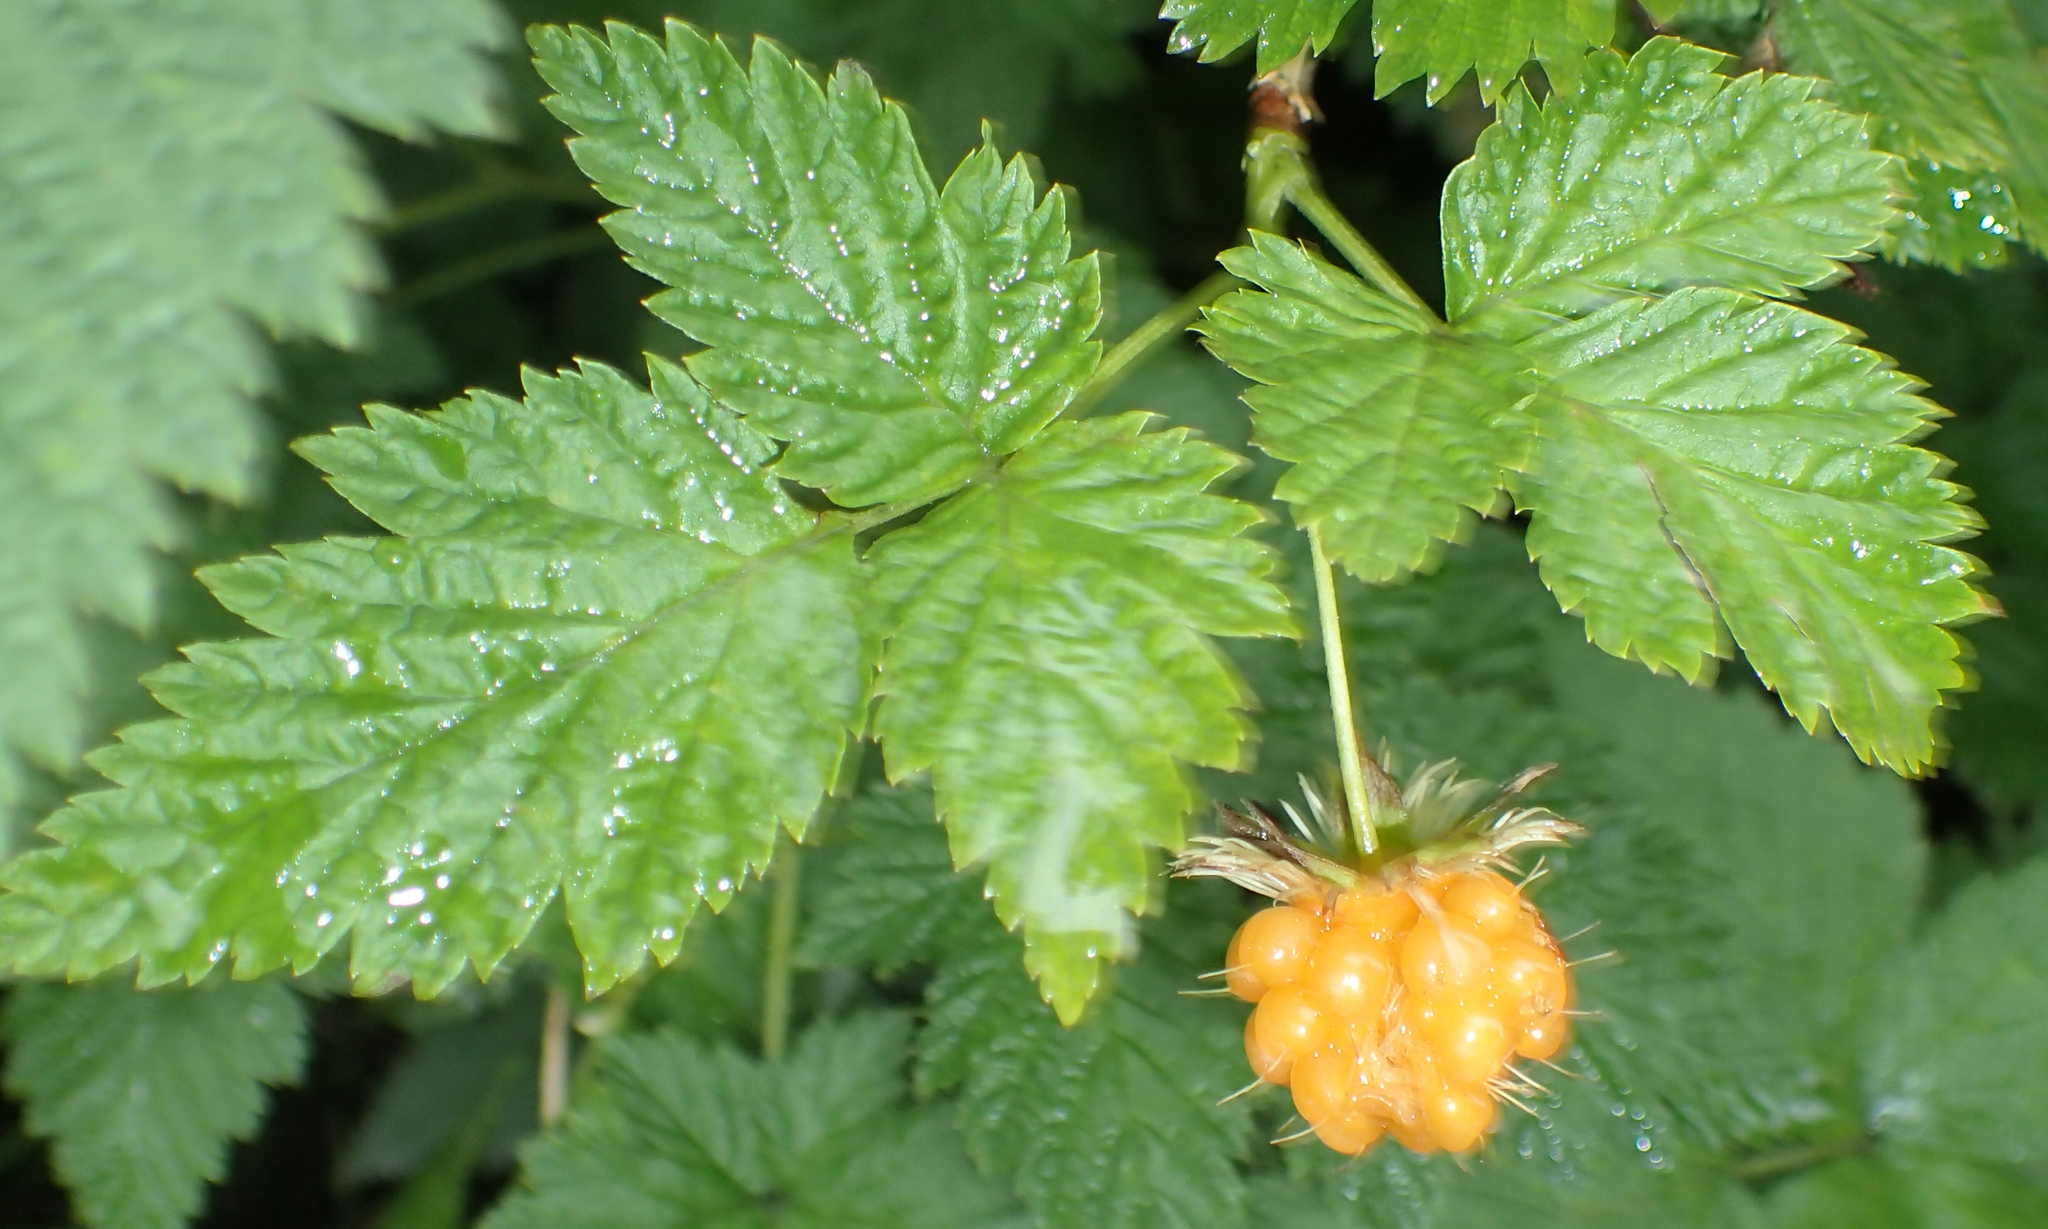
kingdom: Plantae
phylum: Tracheophyta
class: Magnoliopsida
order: Rosales
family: Rosaceae
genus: Rubus
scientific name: Rubus spectabilis
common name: Salmonberry
